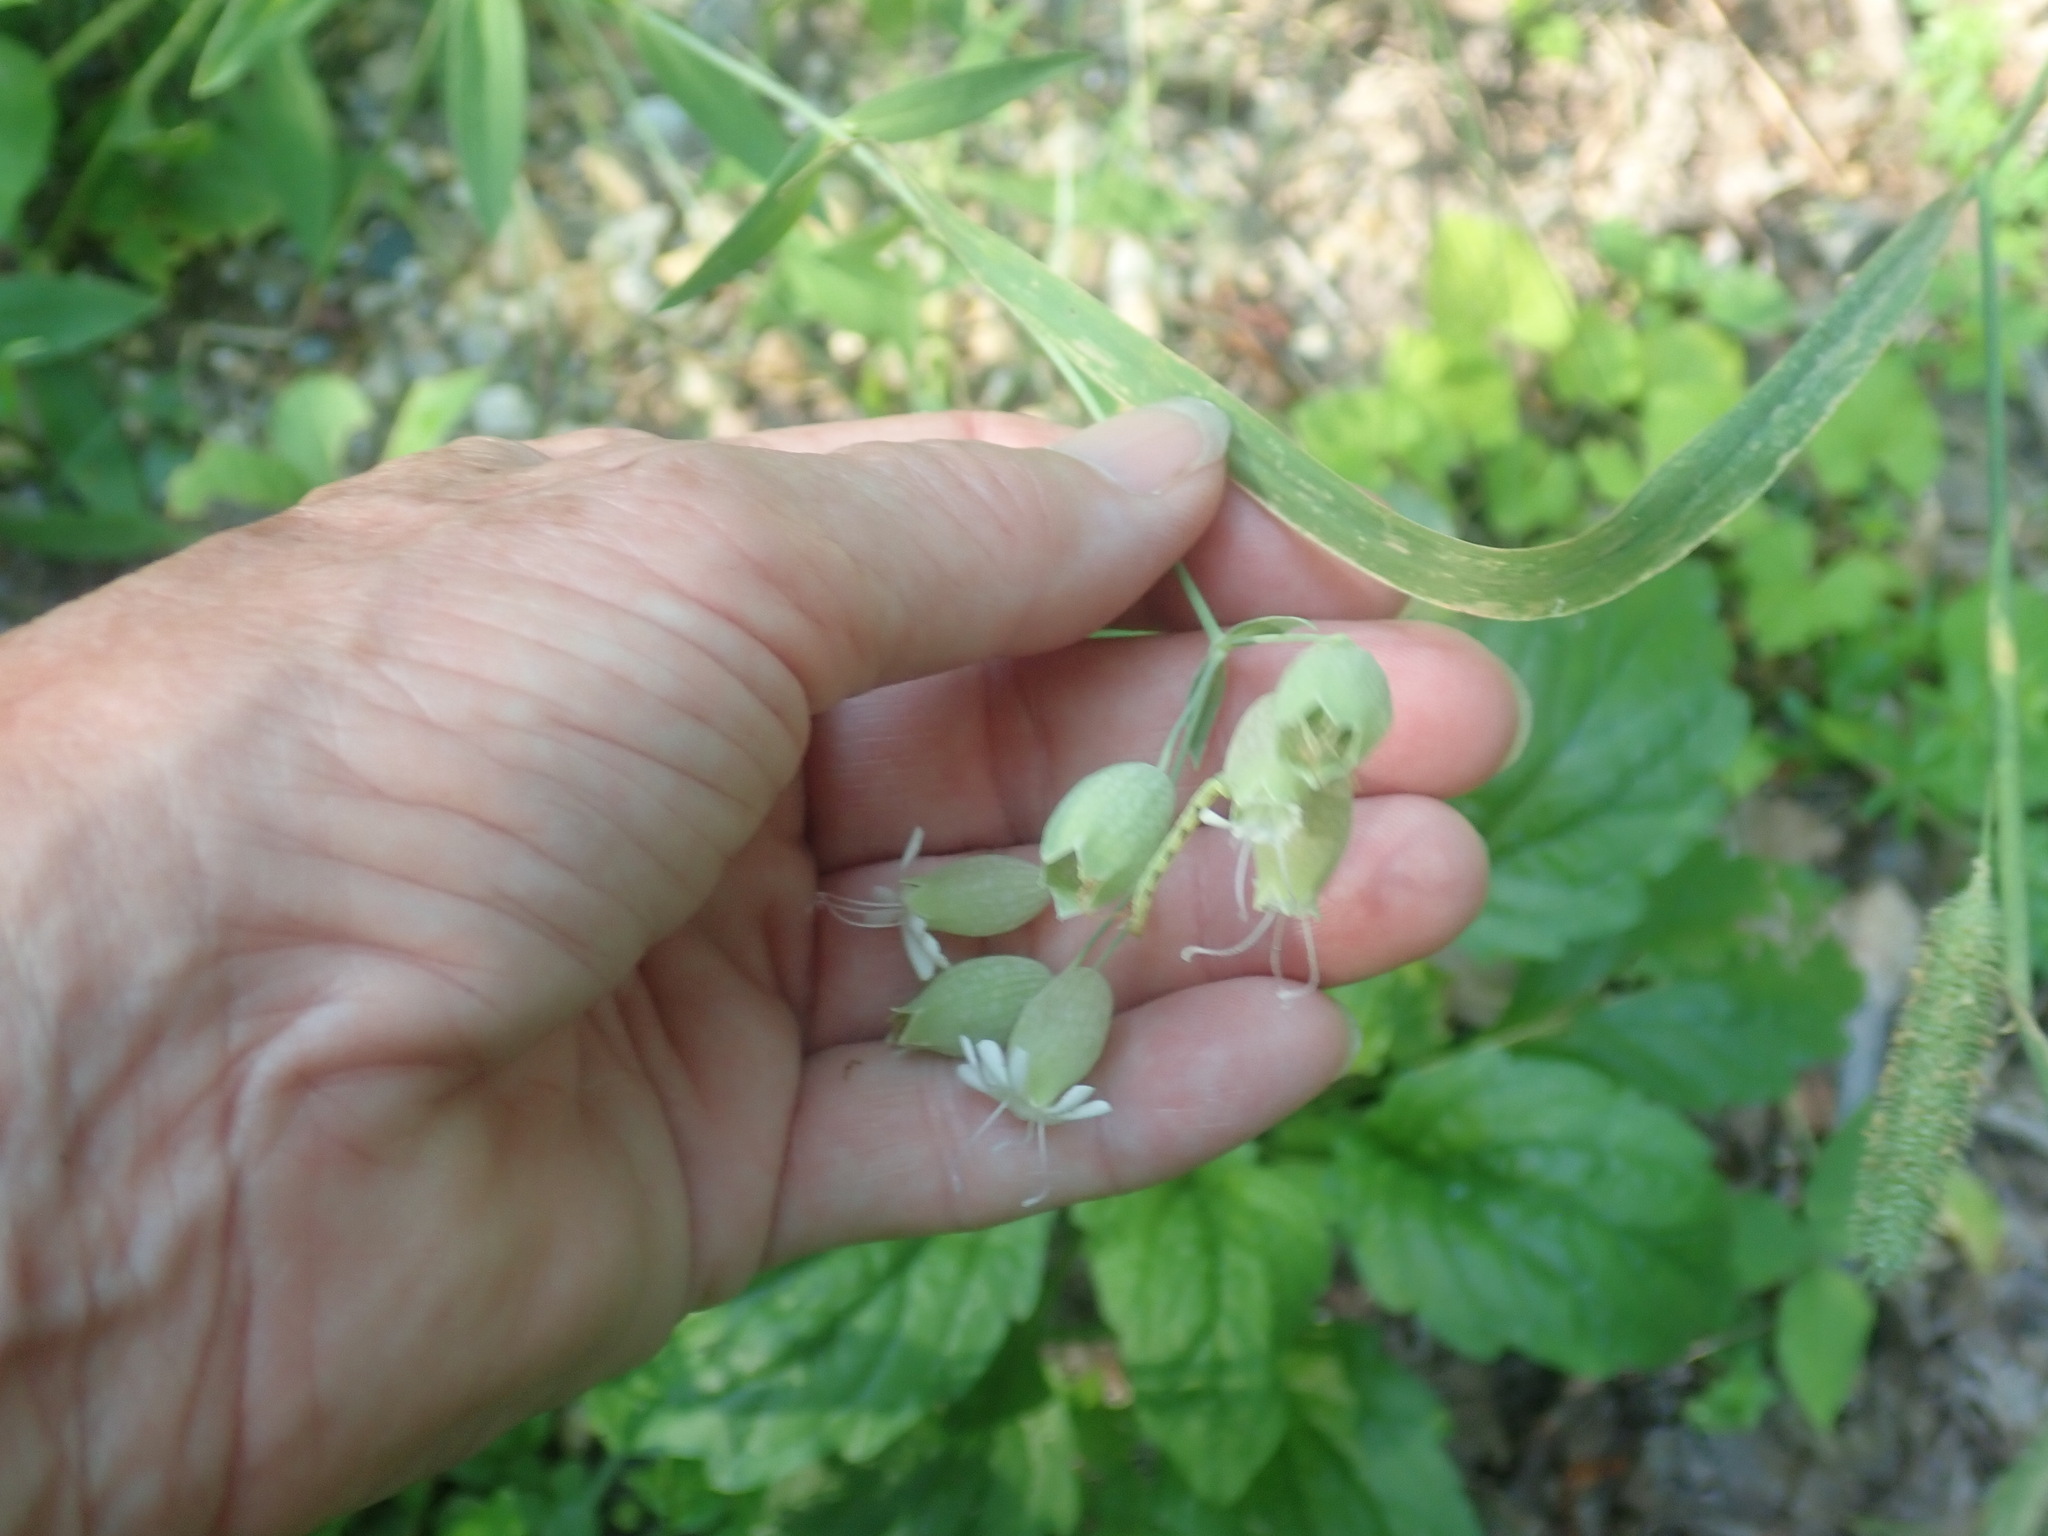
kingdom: Plantae
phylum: Tracheophyta
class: Magnoliopsida
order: Caryophyllales
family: Caryophyllaceae
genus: Silene
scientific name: Silene vulgaris
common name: Bladder campion
